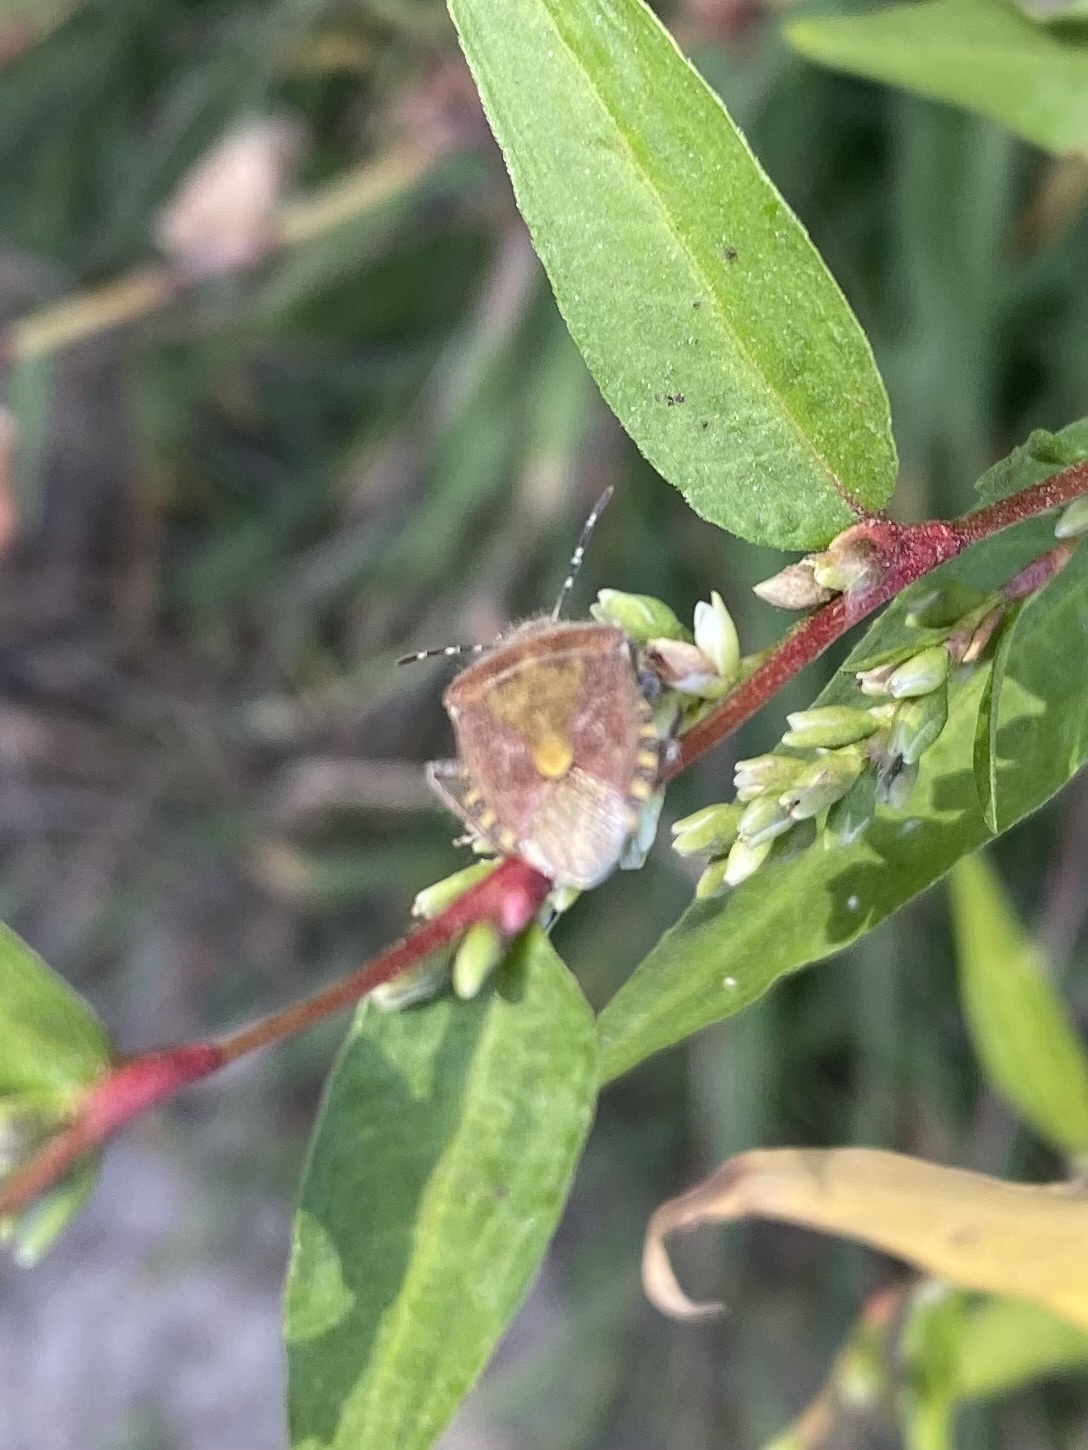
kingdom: Animalia
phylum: Arthropoda
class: Insecta
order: Hemiptera
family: Pentatomidae
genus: Dolycoris
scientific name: Dolycoris baccarum
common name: Sloe bug
